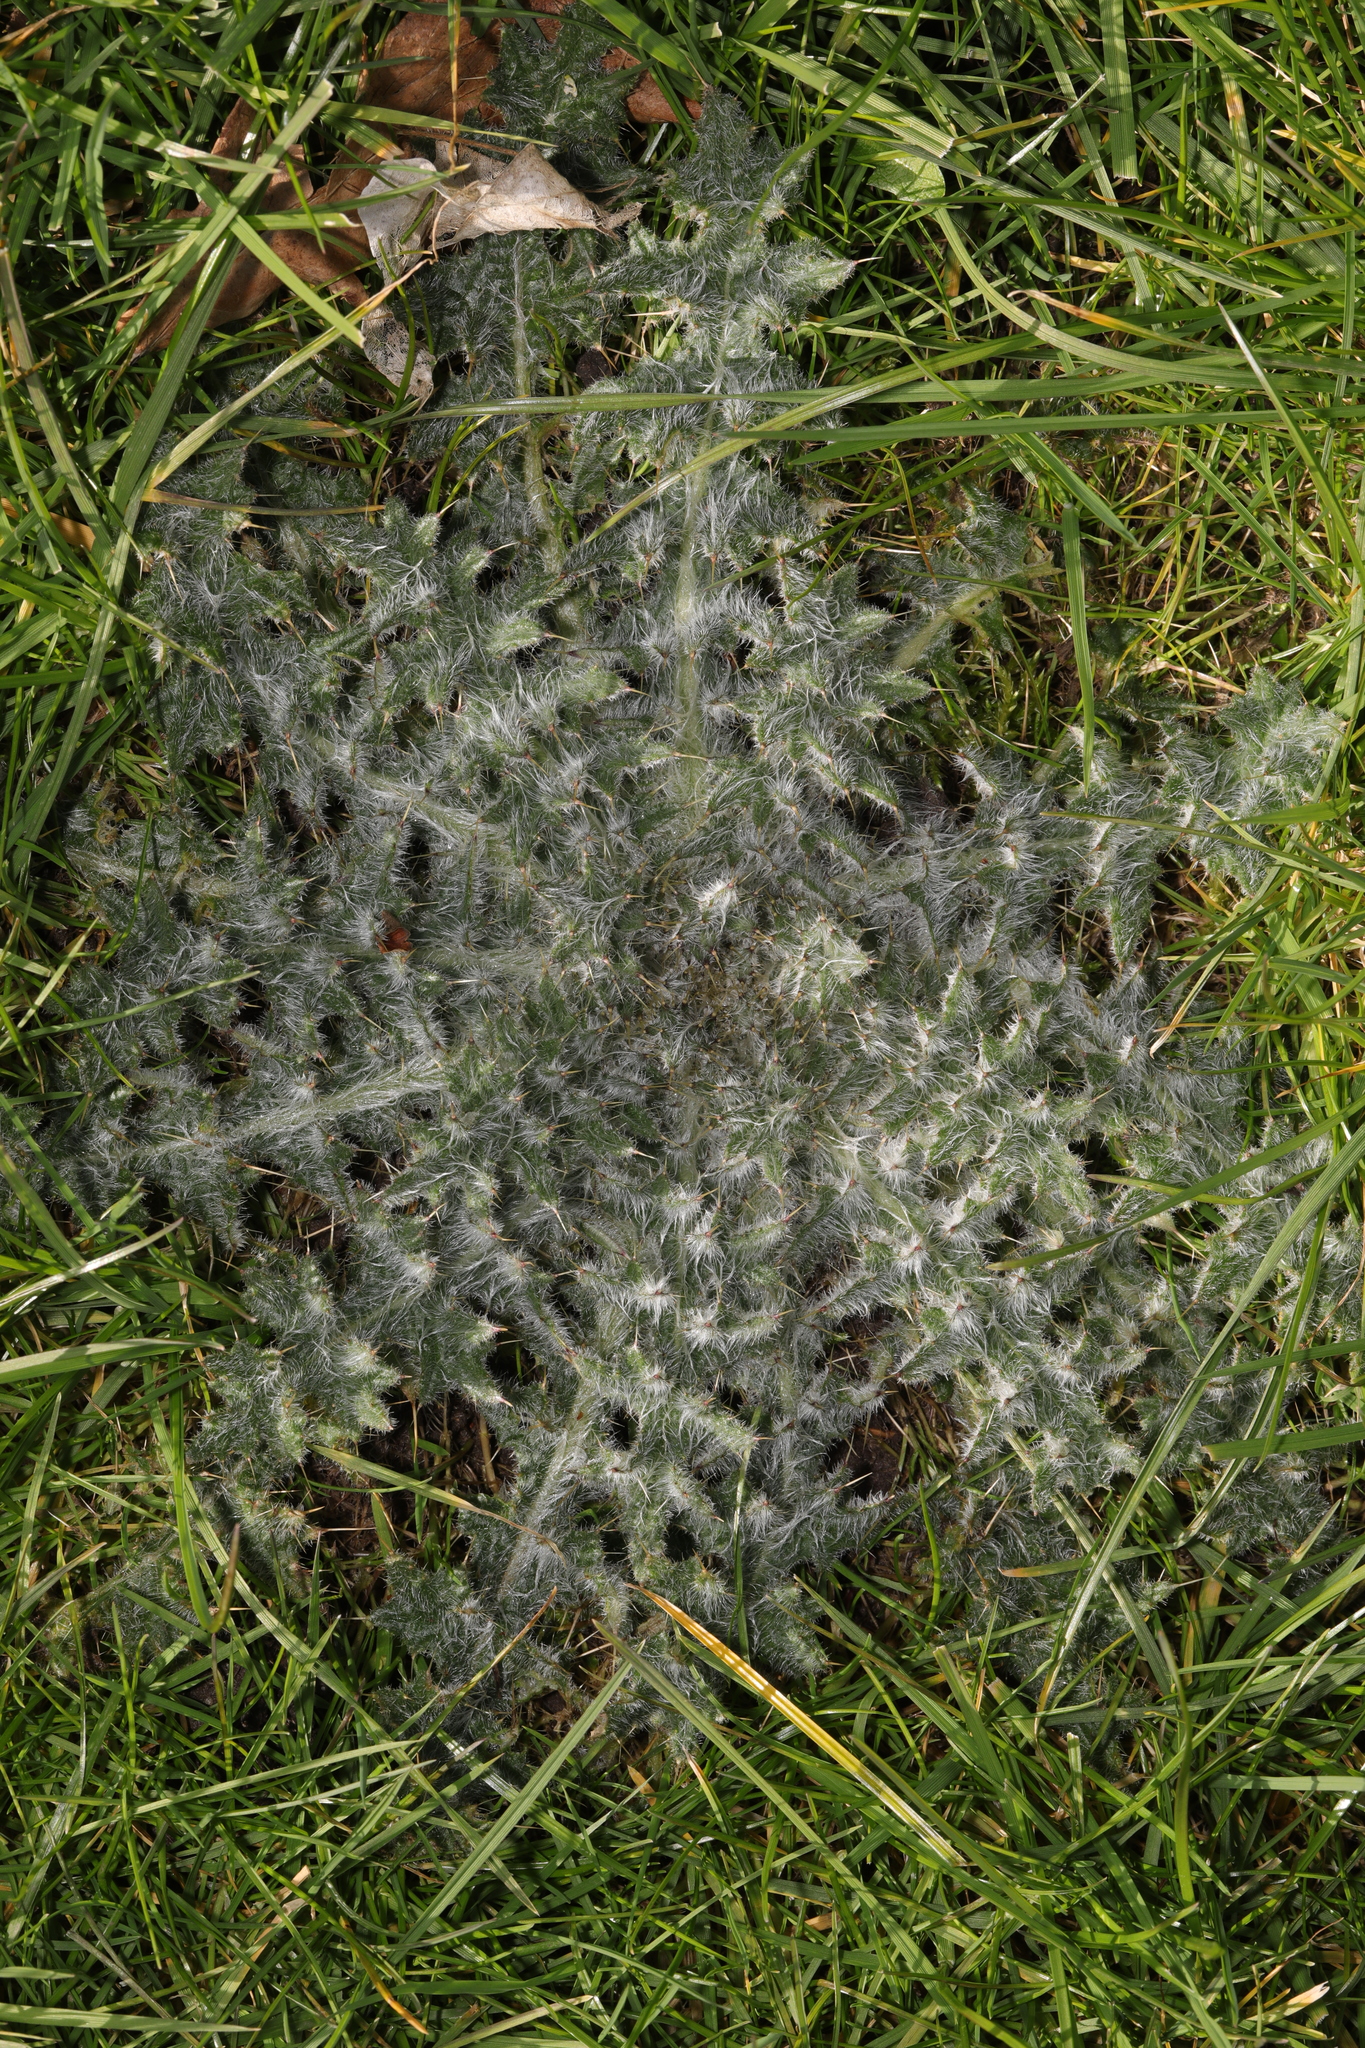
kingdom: Plantae
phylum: Tracheophyta
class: Magnoliopsida
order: Asterales
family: Asteraceae
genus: Cirsium
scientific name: Cirsium vulgare
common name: Bull thistle
